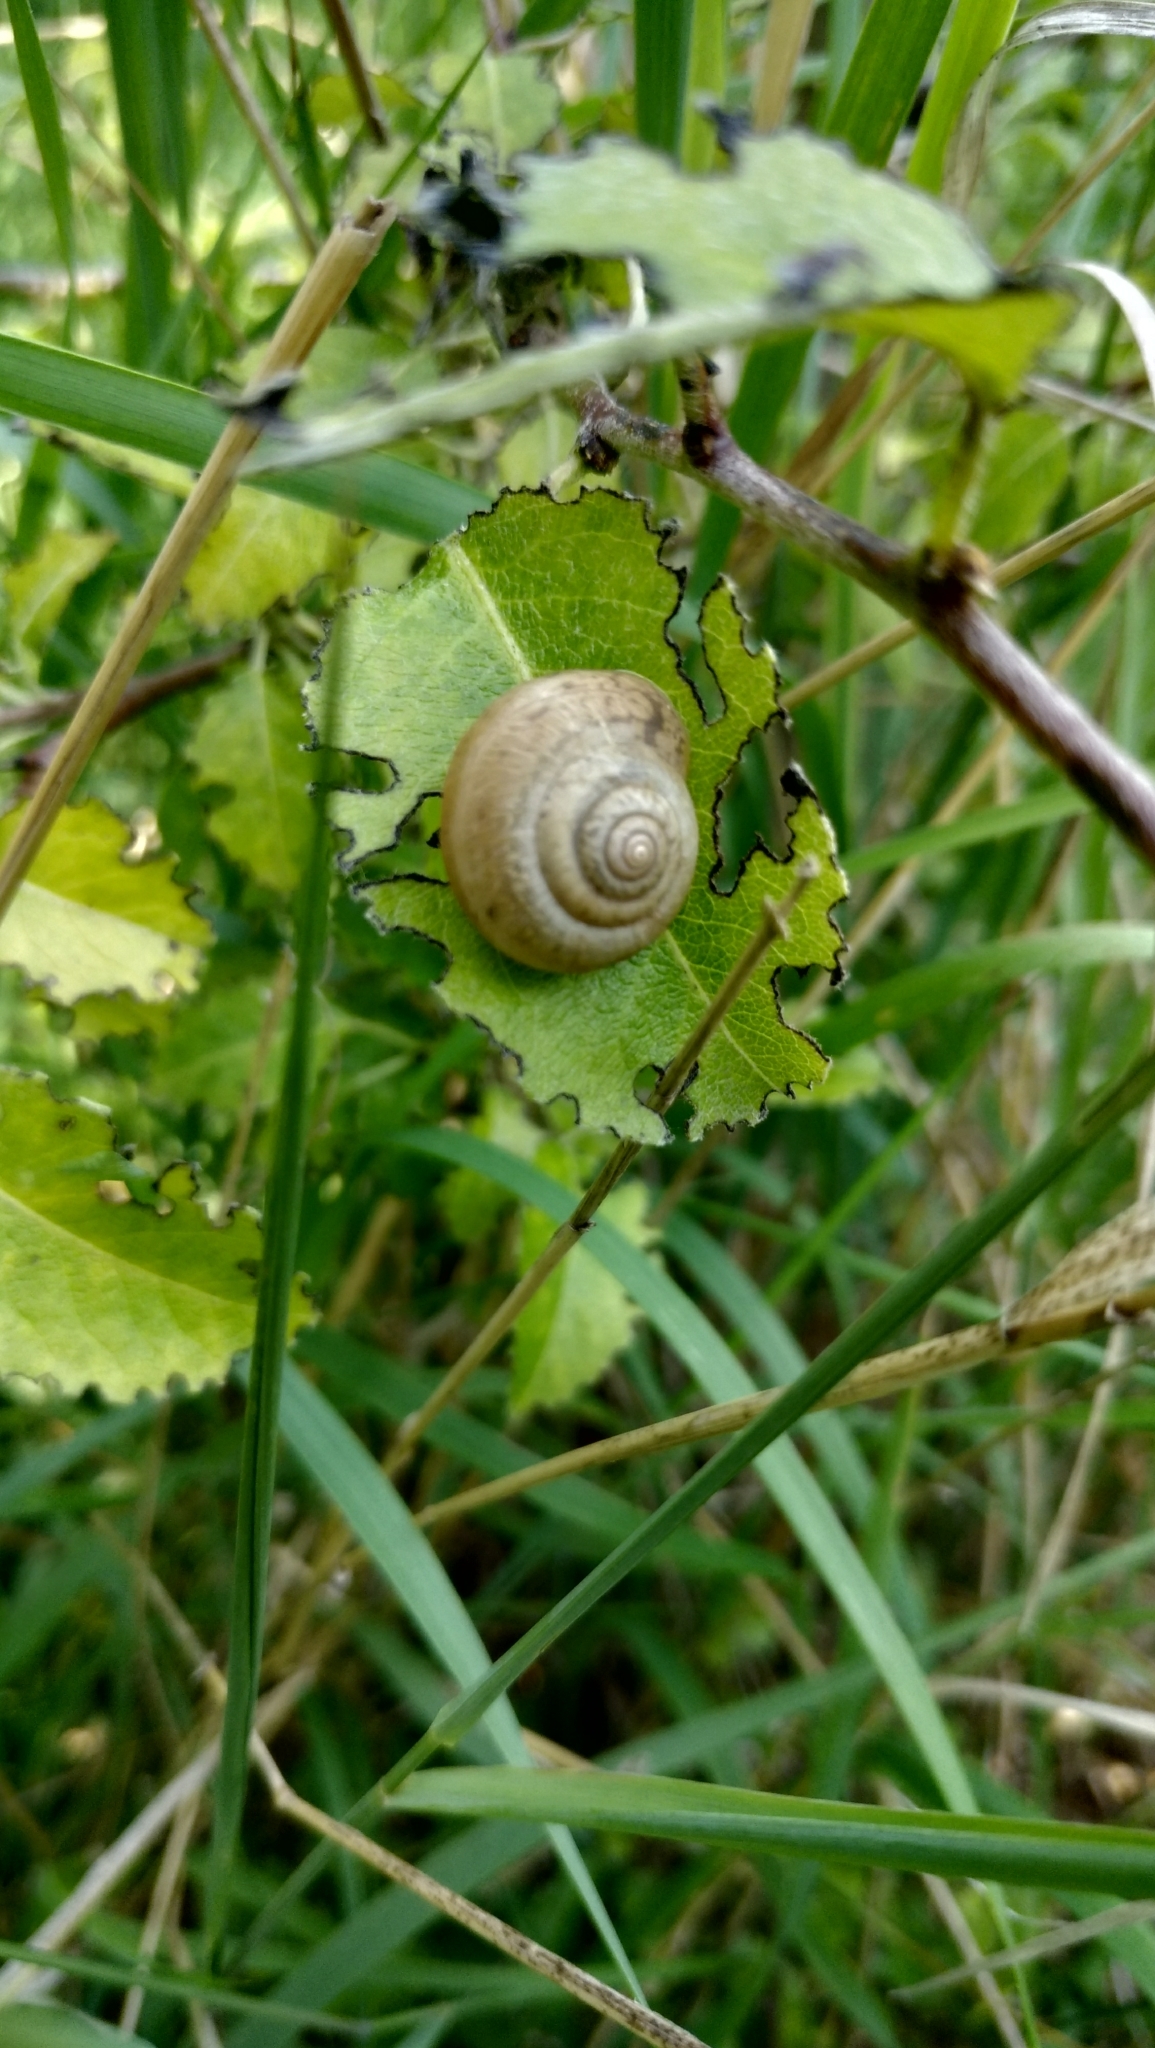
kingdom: Animalia
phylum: Mollusca
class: Gastropoda
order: Stylommatophora
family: Hygromiidae
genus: Euomphalia
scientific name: Euomphalia strigella
